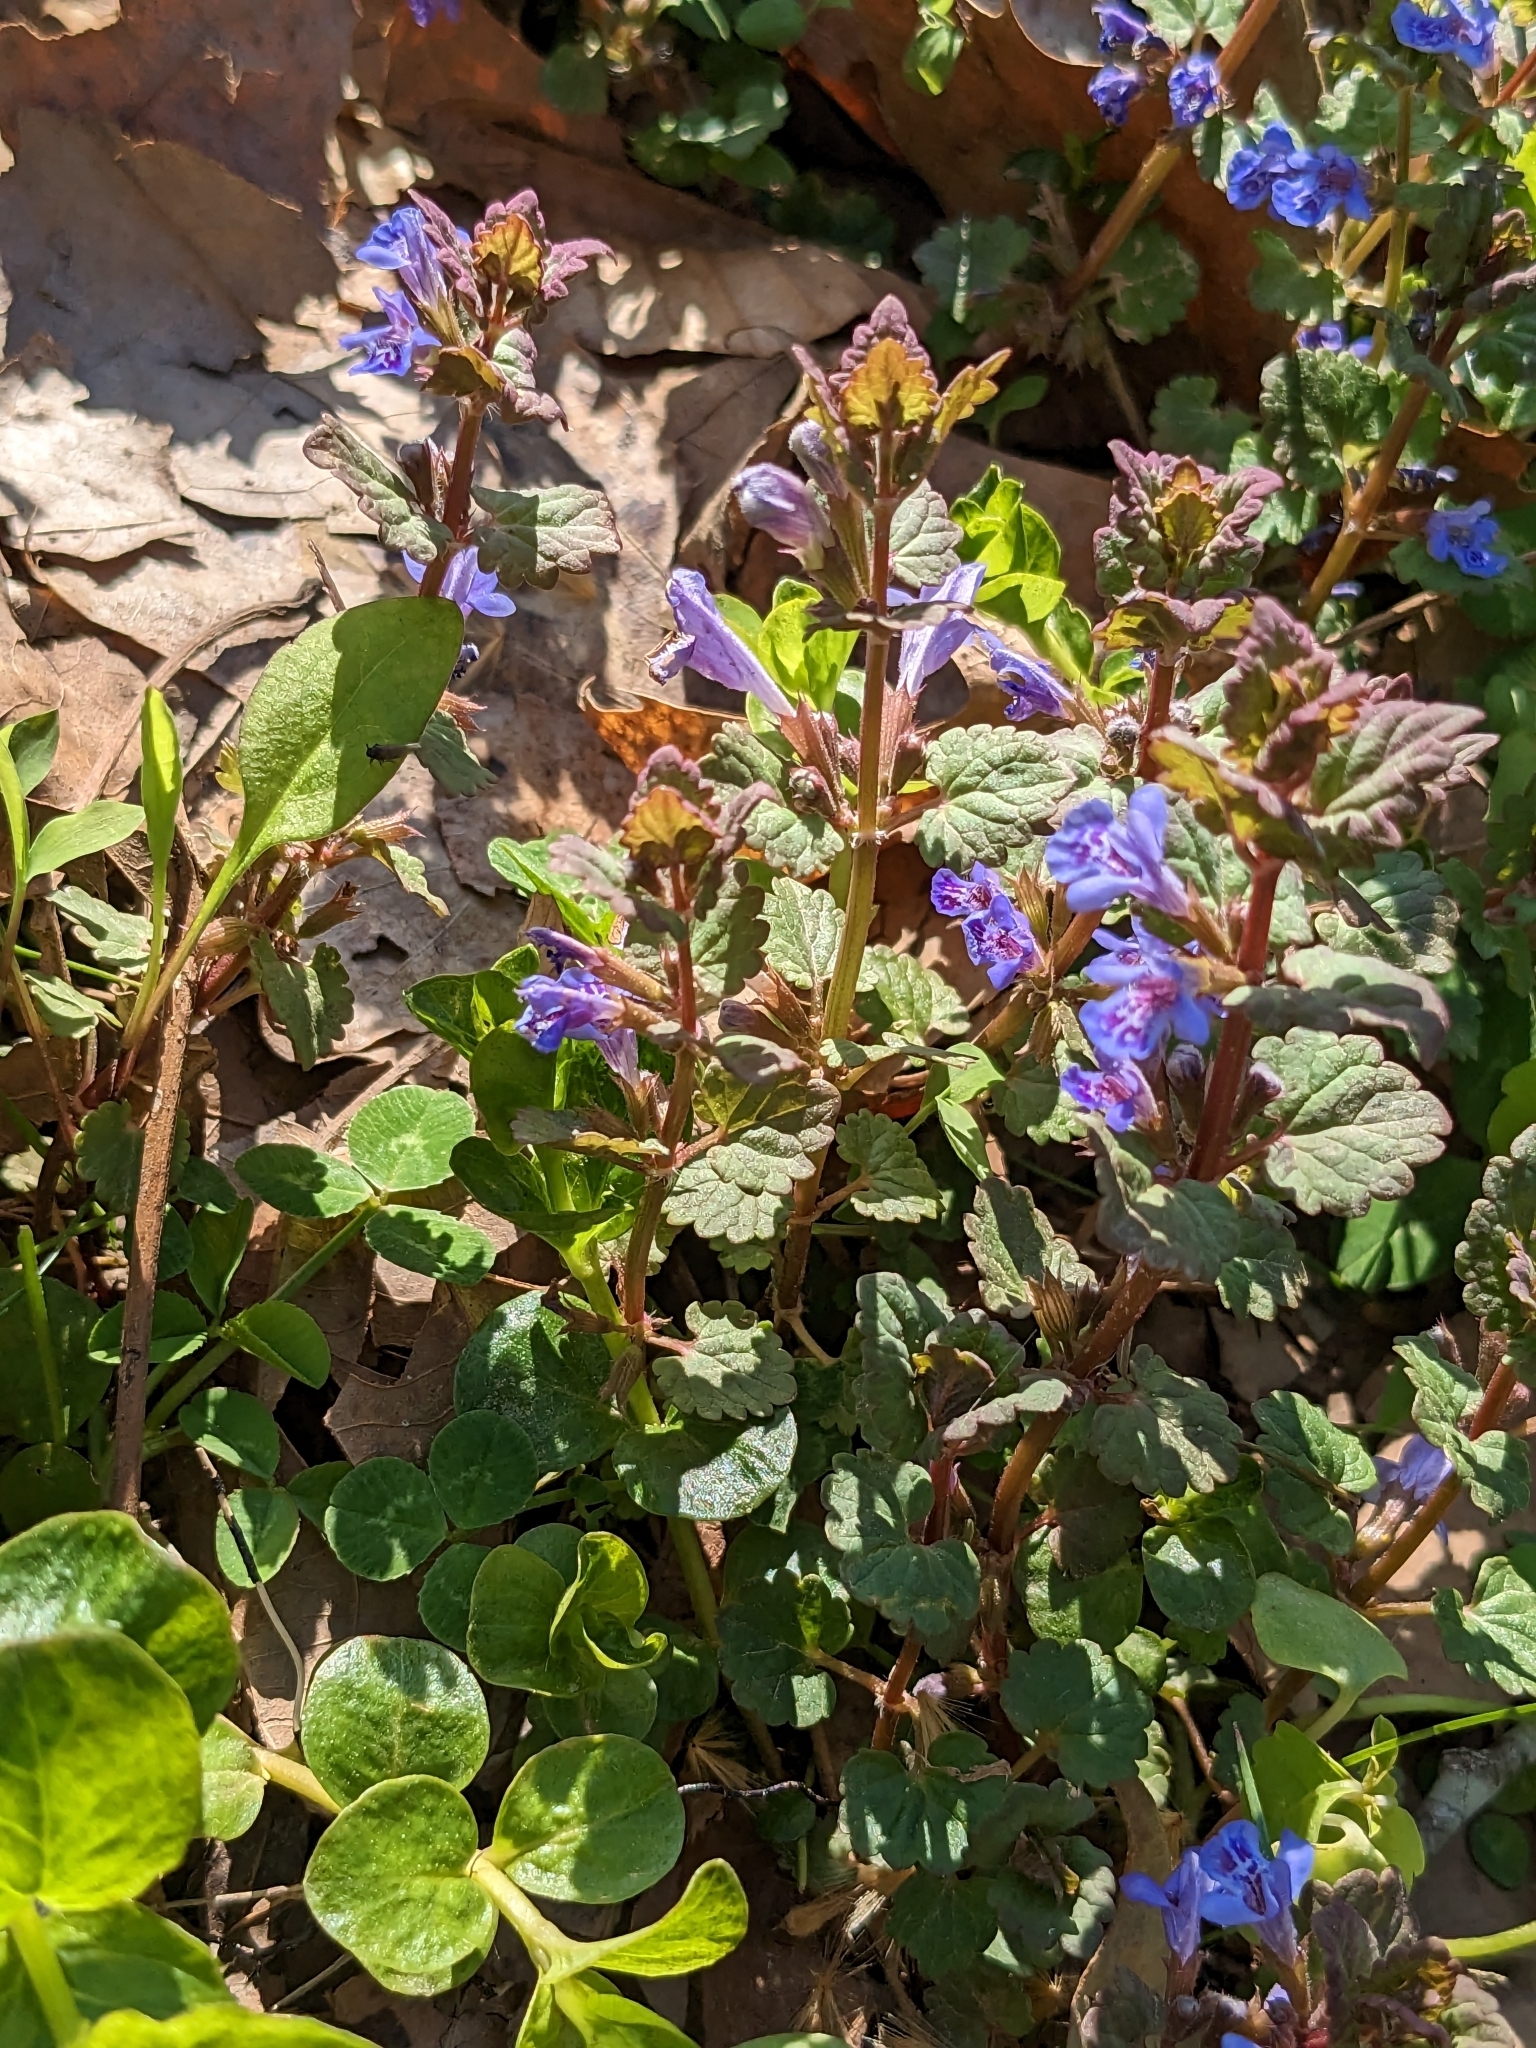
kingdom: Plantae
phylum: Tracheophyta
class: Magnoliopsida
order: Lamiales
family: Lamiaceae
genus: Glechoma
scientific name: Glechoma hederacea
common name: Ground ivy
